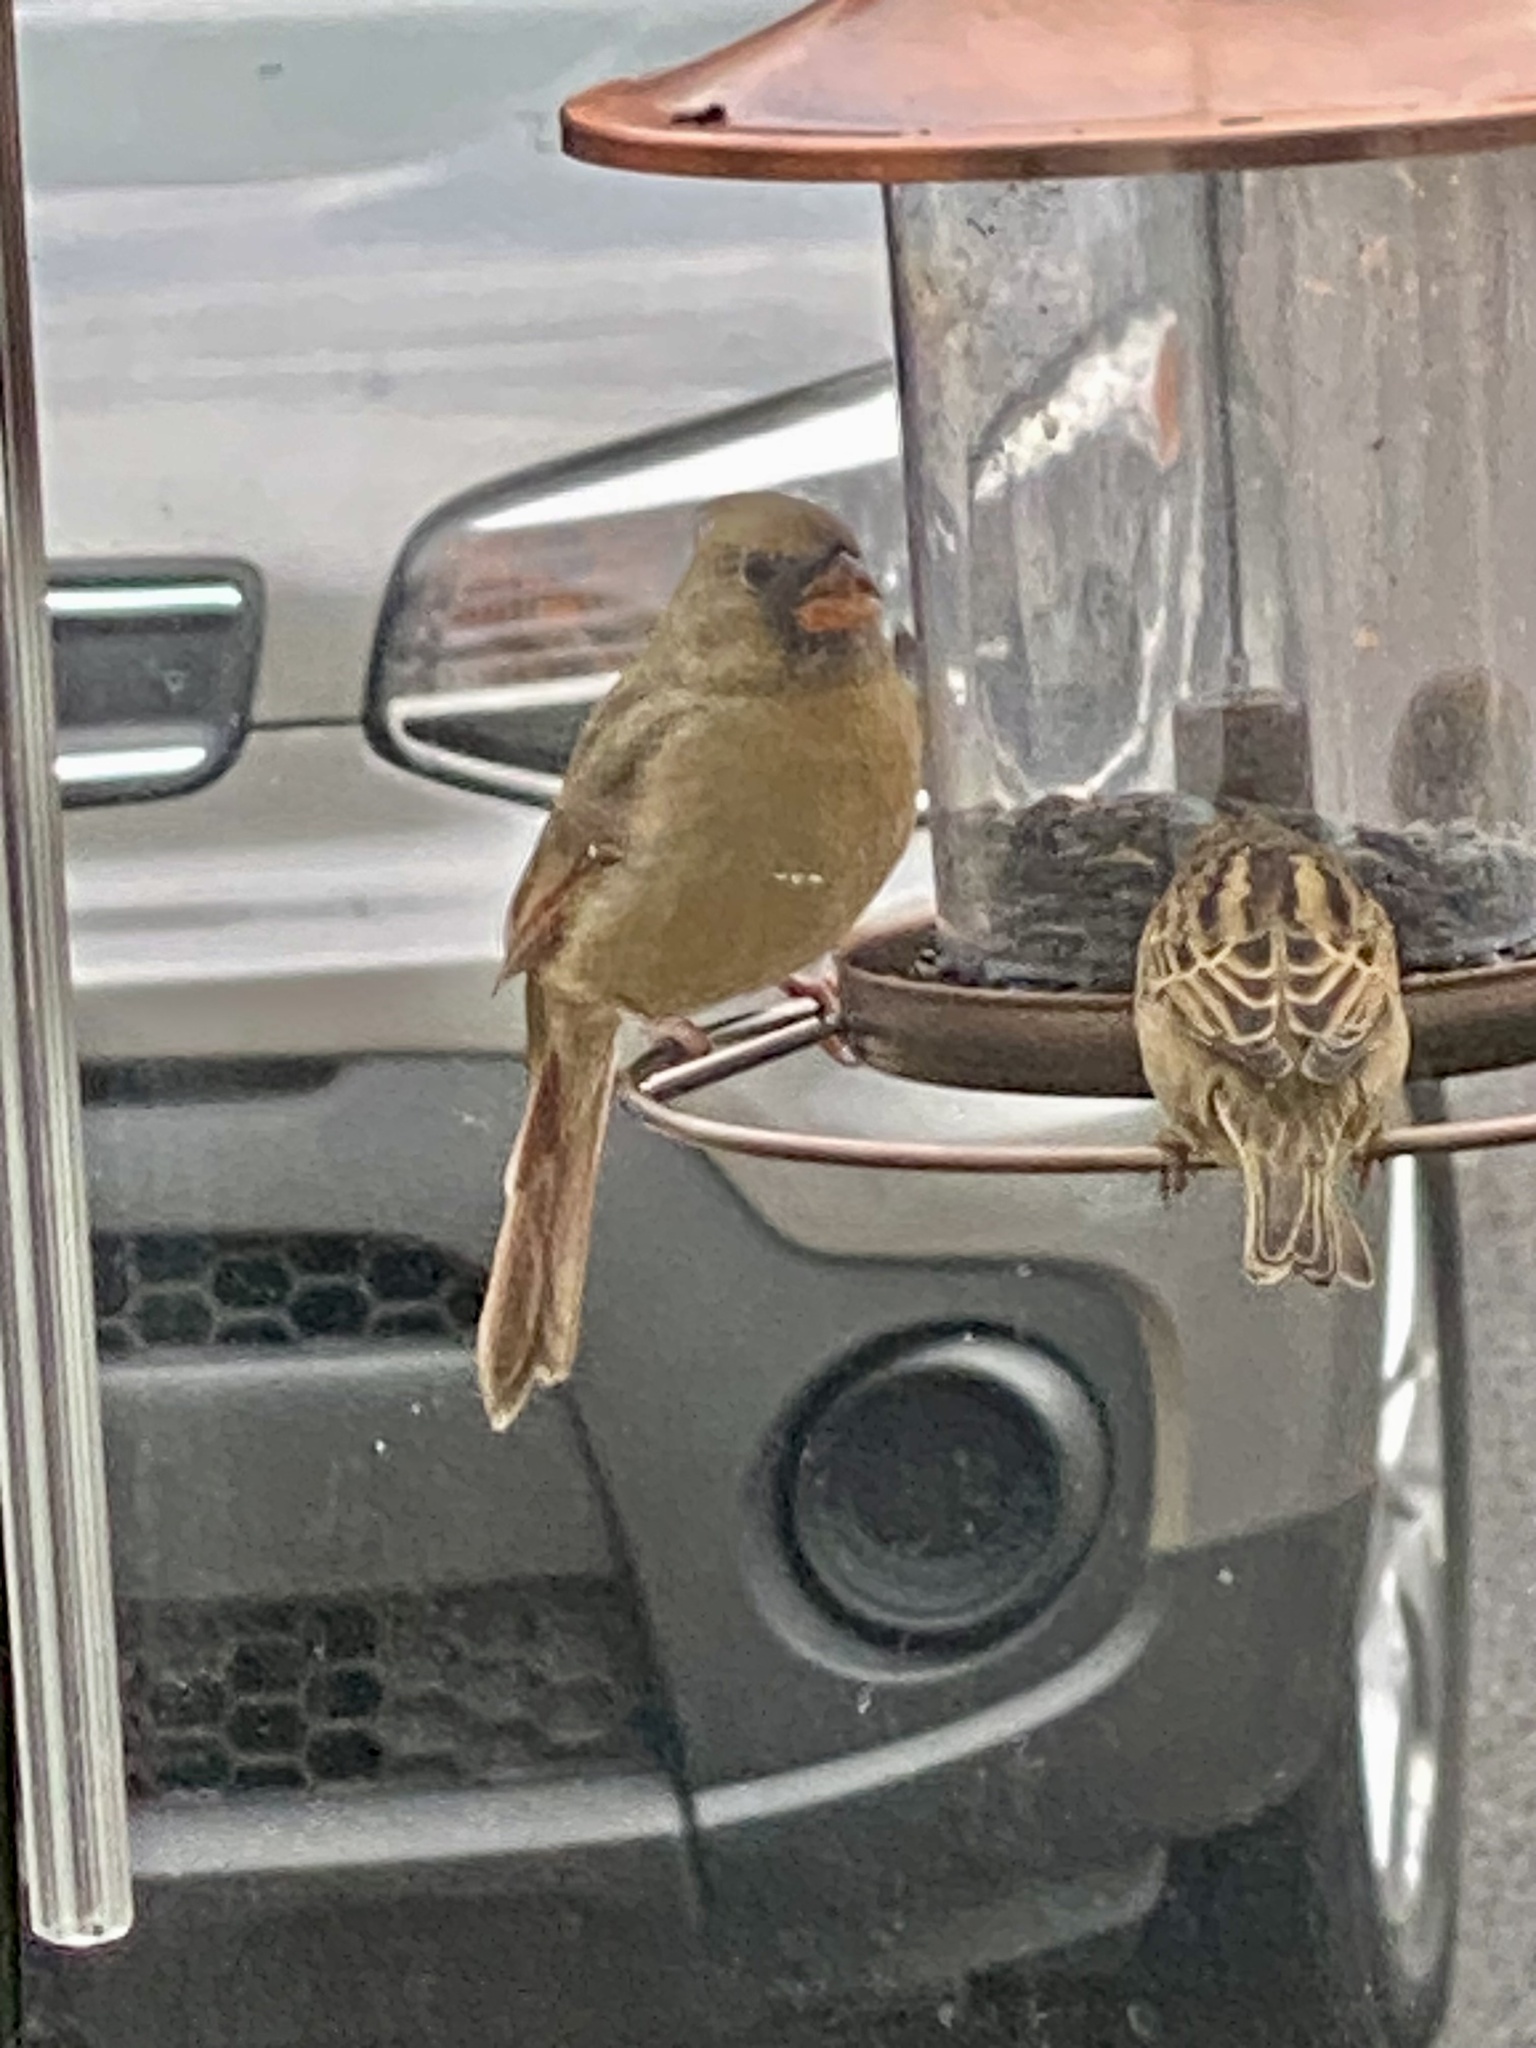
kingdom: Animalia
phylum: Chordata
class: Aves
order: Passeriformes
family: Cardinalidae
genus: Cardinalis
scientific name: Cardinalis cardinalis
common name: Northern cardinal
